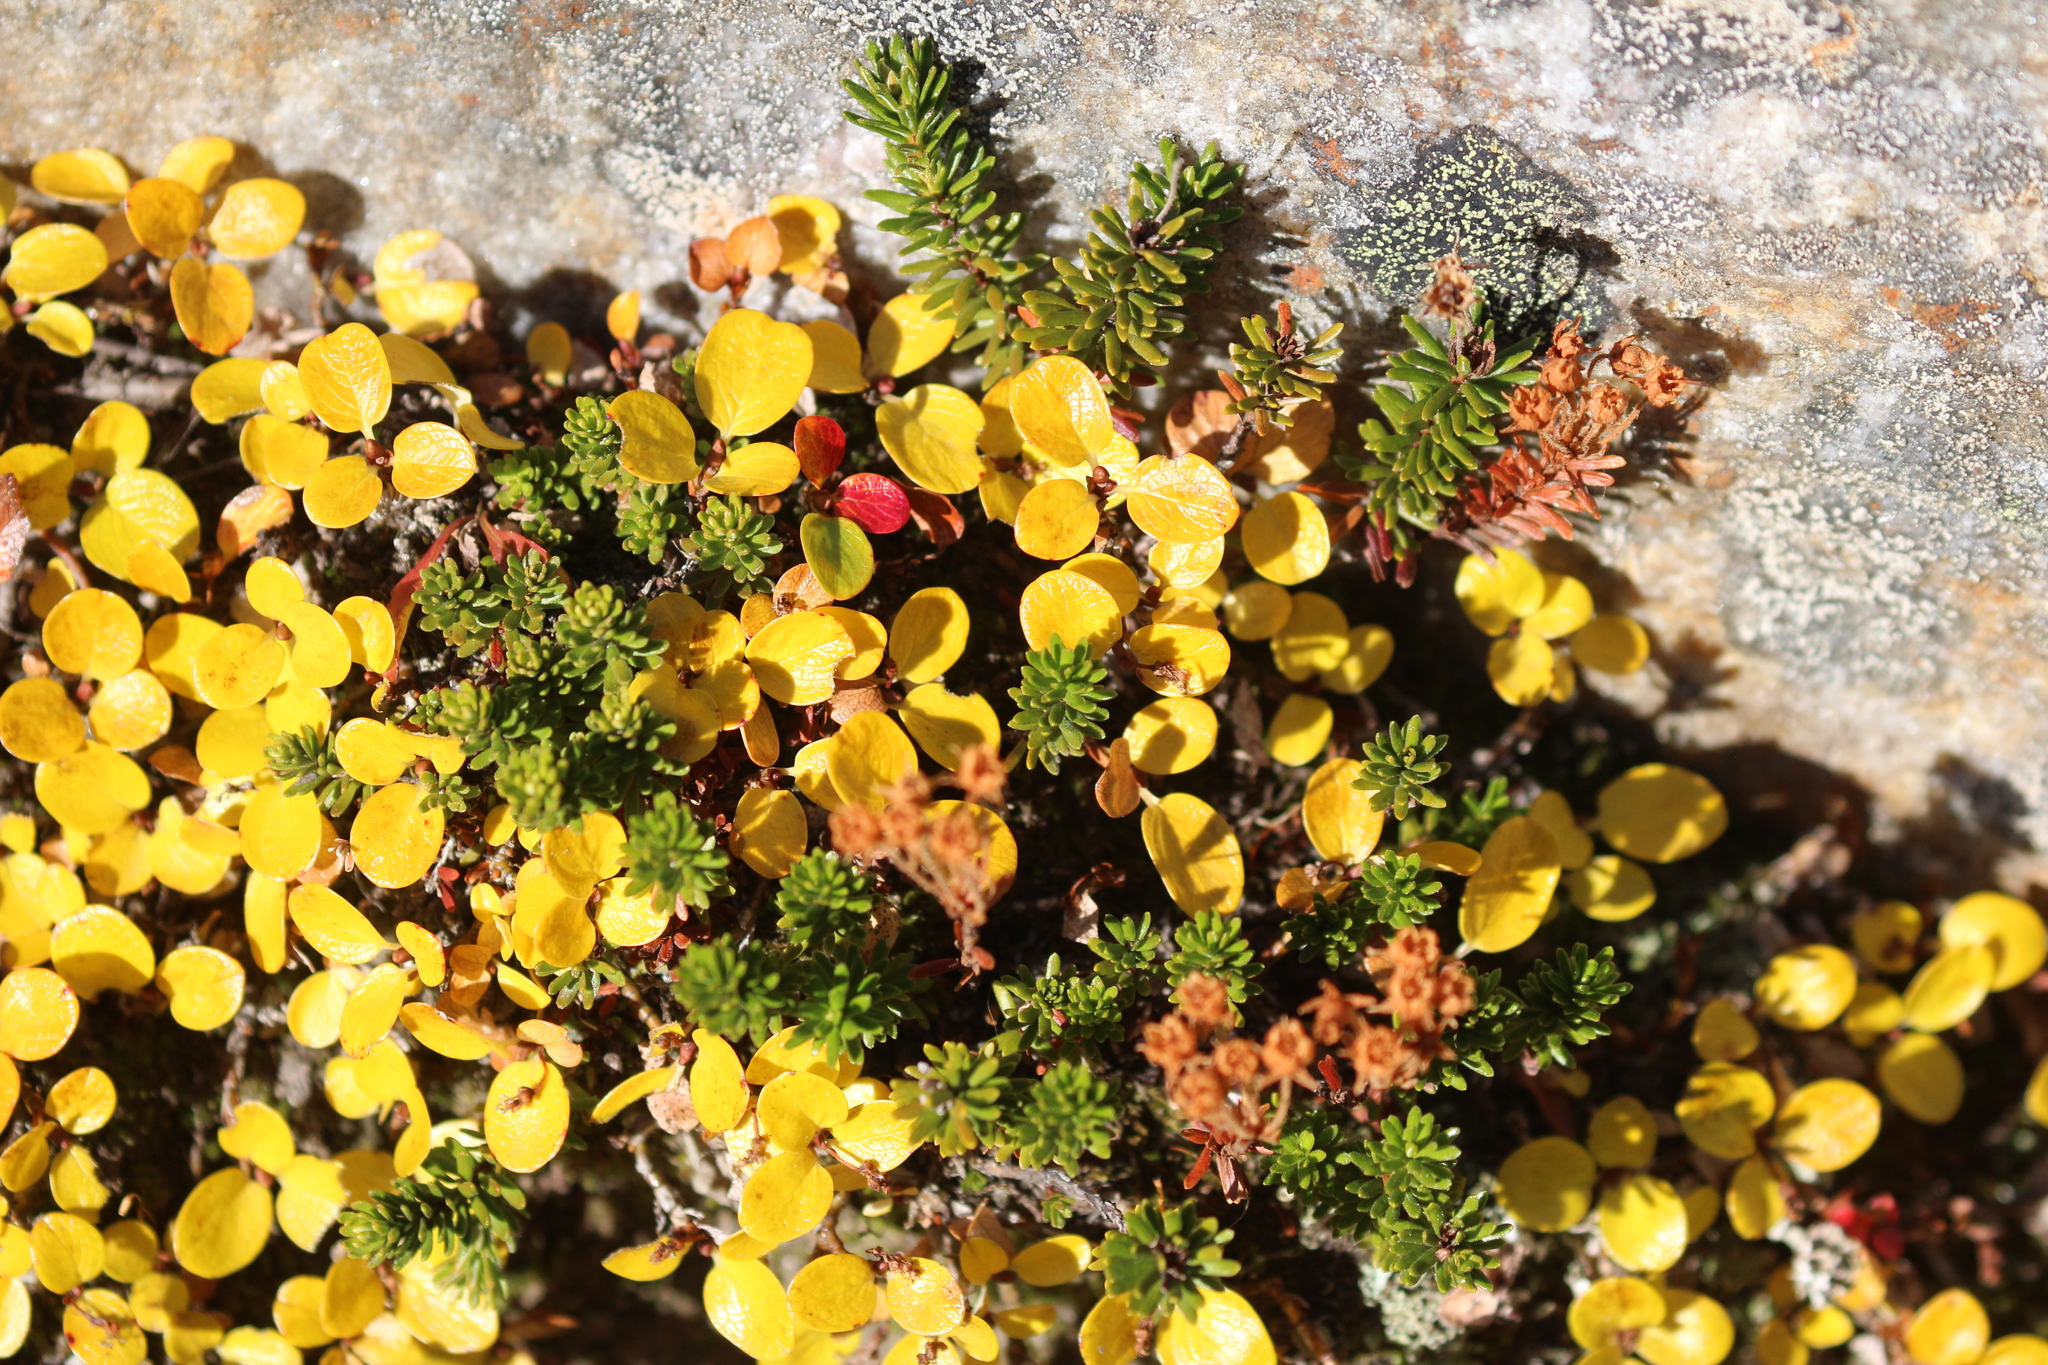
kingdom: Plantae
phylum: Tracheophyta
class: Magnoliopsida
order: Malpighiales
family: Salicaceae
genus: Salix
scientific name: Salix nivalis
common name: Dwarf snow willow
